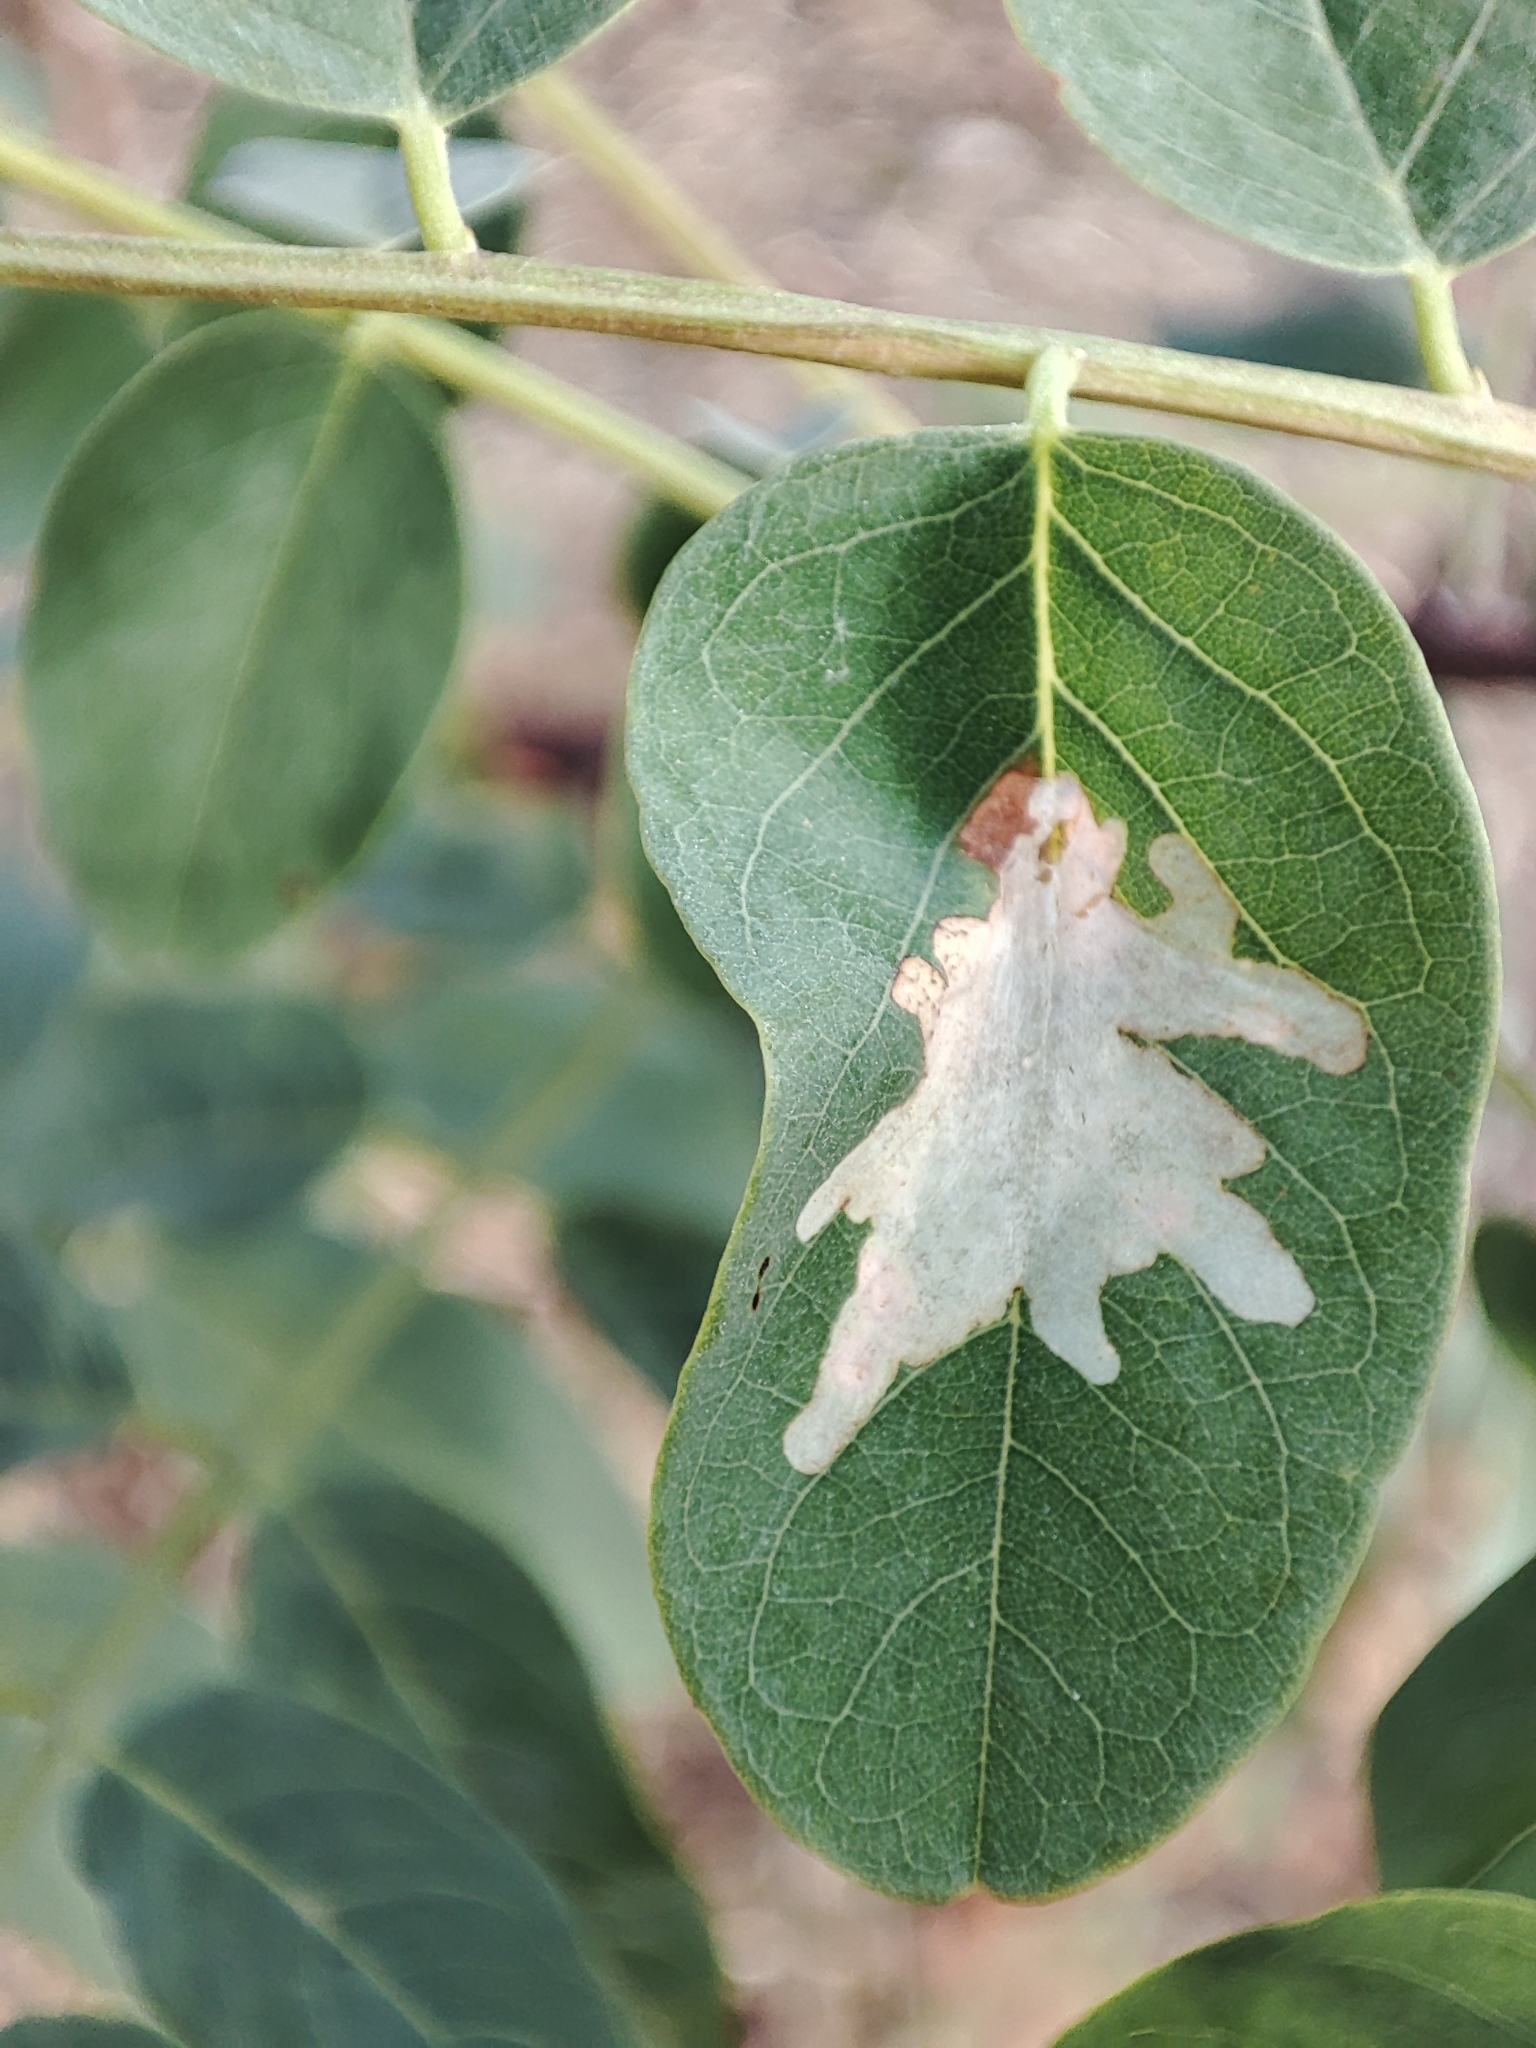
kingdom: Animalia
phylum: Arthropoda
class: Insecta
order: Lepidoptera
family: Gracillariidae
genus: Parectopa
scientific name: Parectopa robiniella
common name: Locust digitate leafminer
